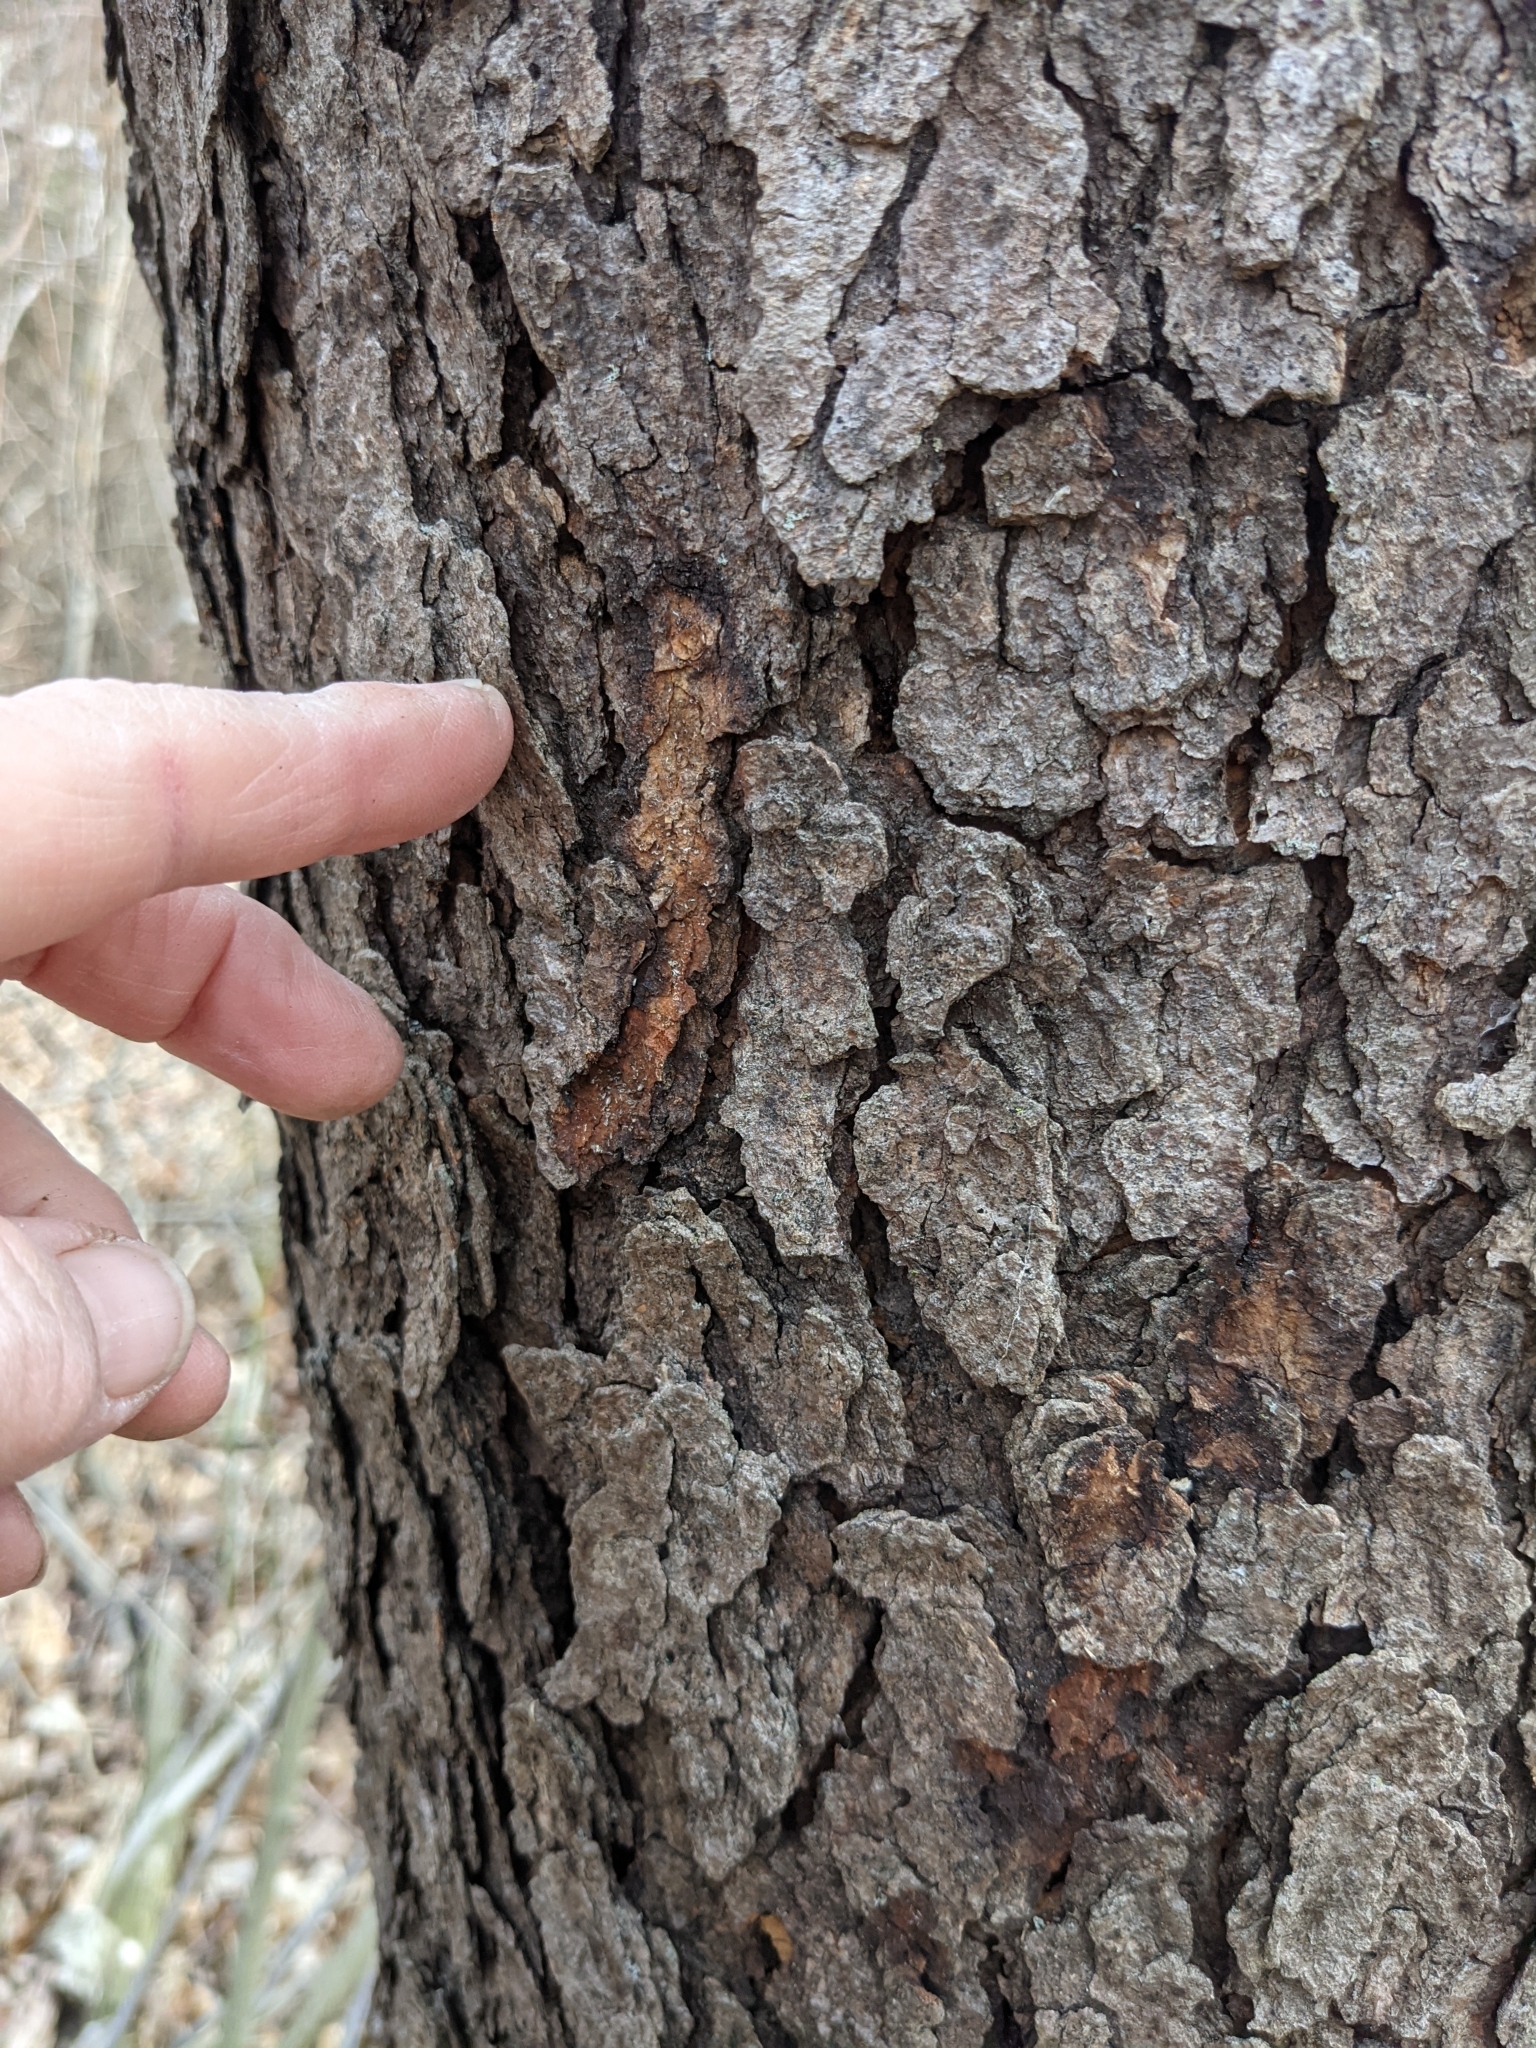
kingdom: Plantae
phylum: Tracheophyta
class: Magnoliopsida
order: Rosales
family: Rosaceae
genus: Prunus
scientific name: Prunus serotina
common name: Black cherry
